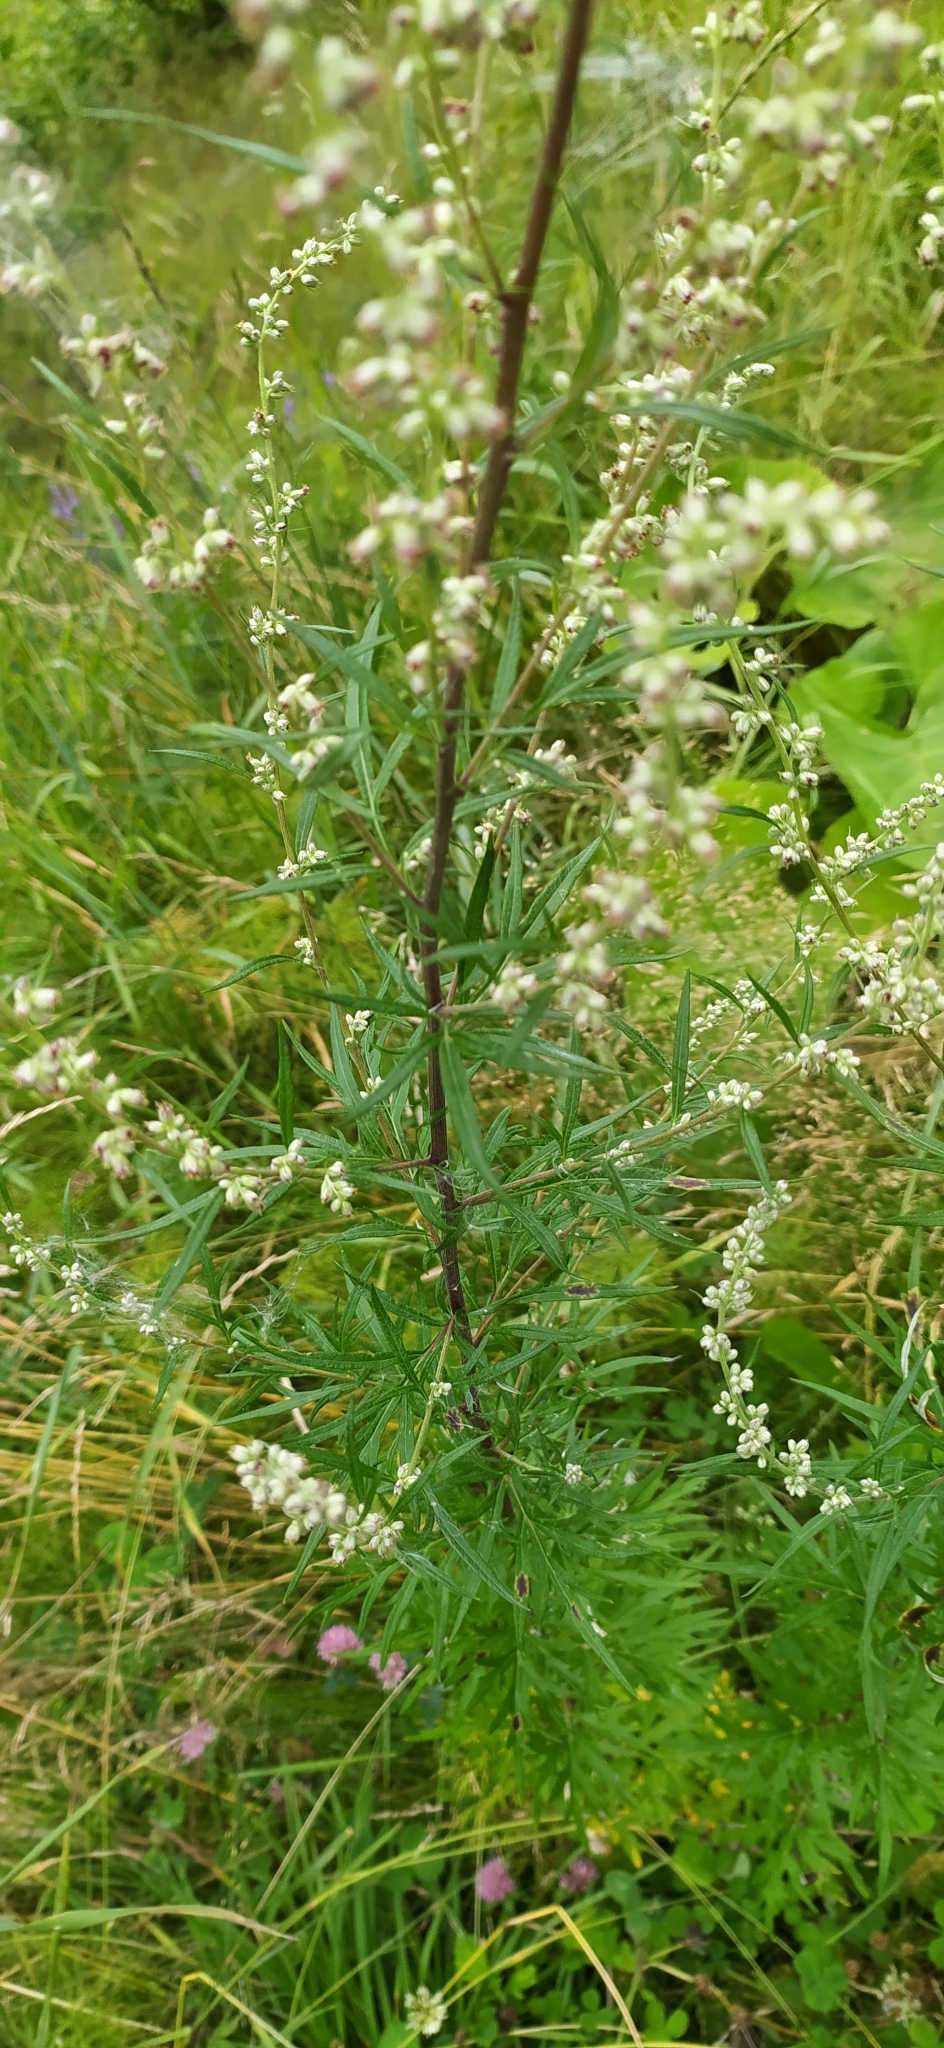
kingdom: Plantae
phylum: Tracheophyta
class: Magnoliopsida
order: Asterales
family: Asteraceae
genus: Artemisia
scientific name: Artemisia vulgaris
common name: Mugwort
